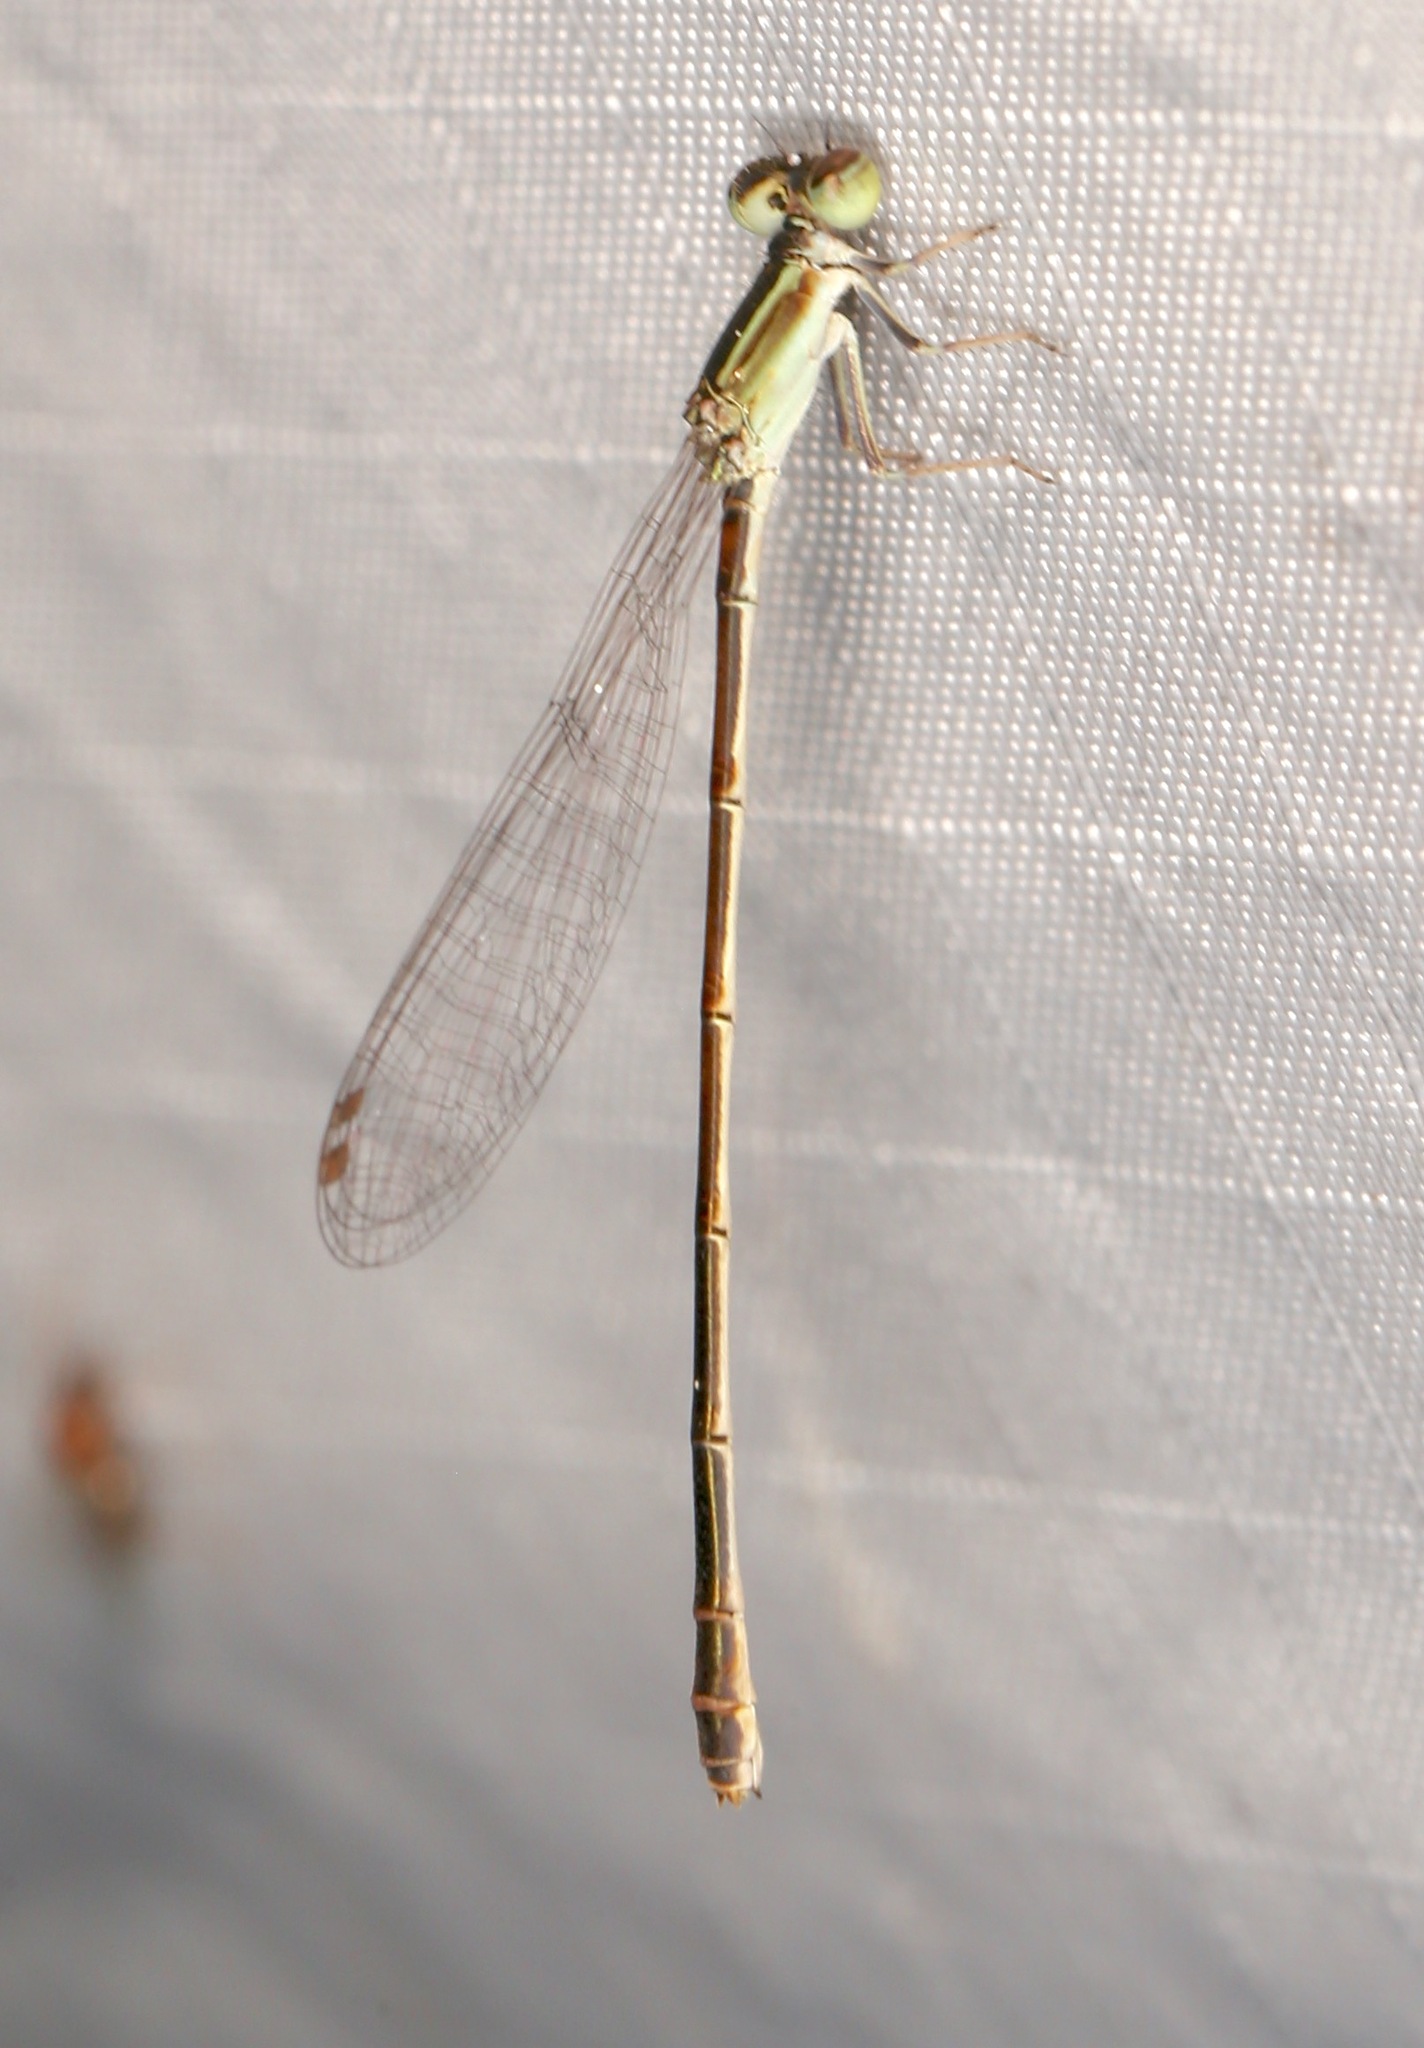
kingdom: Animalia
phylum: Arthropoda
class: Insecta
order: Odonata
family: Coenagrionidae
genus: Ischnura
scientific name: Ischnura hastata
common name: Citrine forktail
